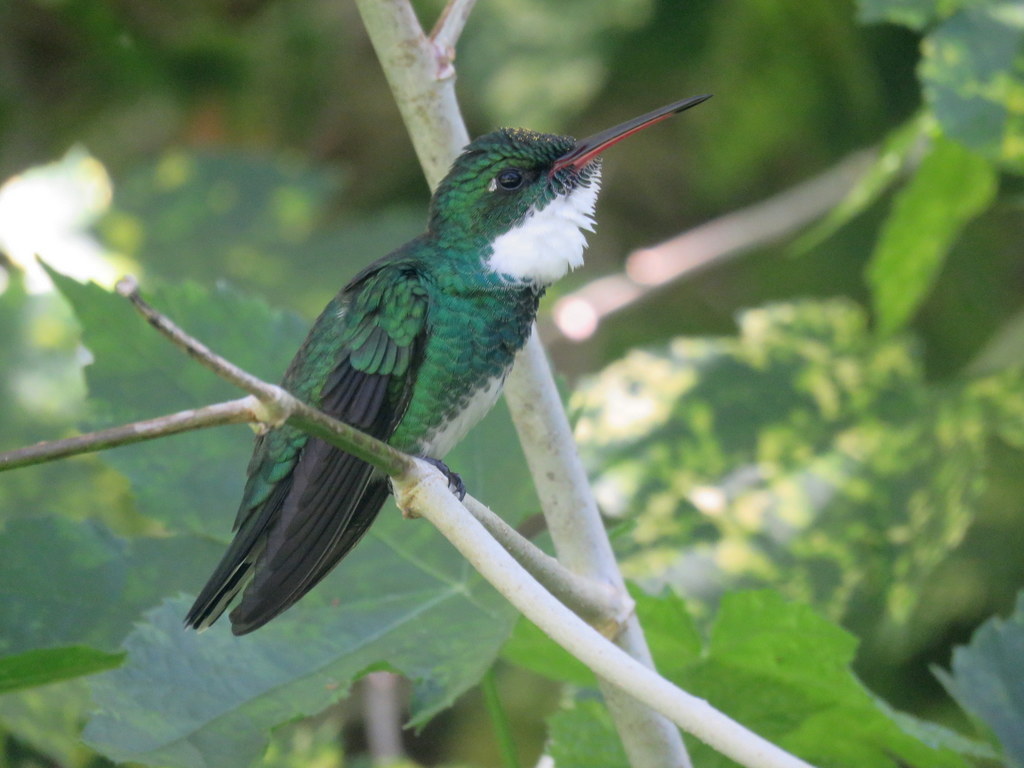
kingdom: Animalia
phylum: Chordata
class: Aves
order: Apodiformes
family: Trochilidae
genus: Leucochloris
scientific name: Leucochloris albicollis
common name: White-throated hummingbird
